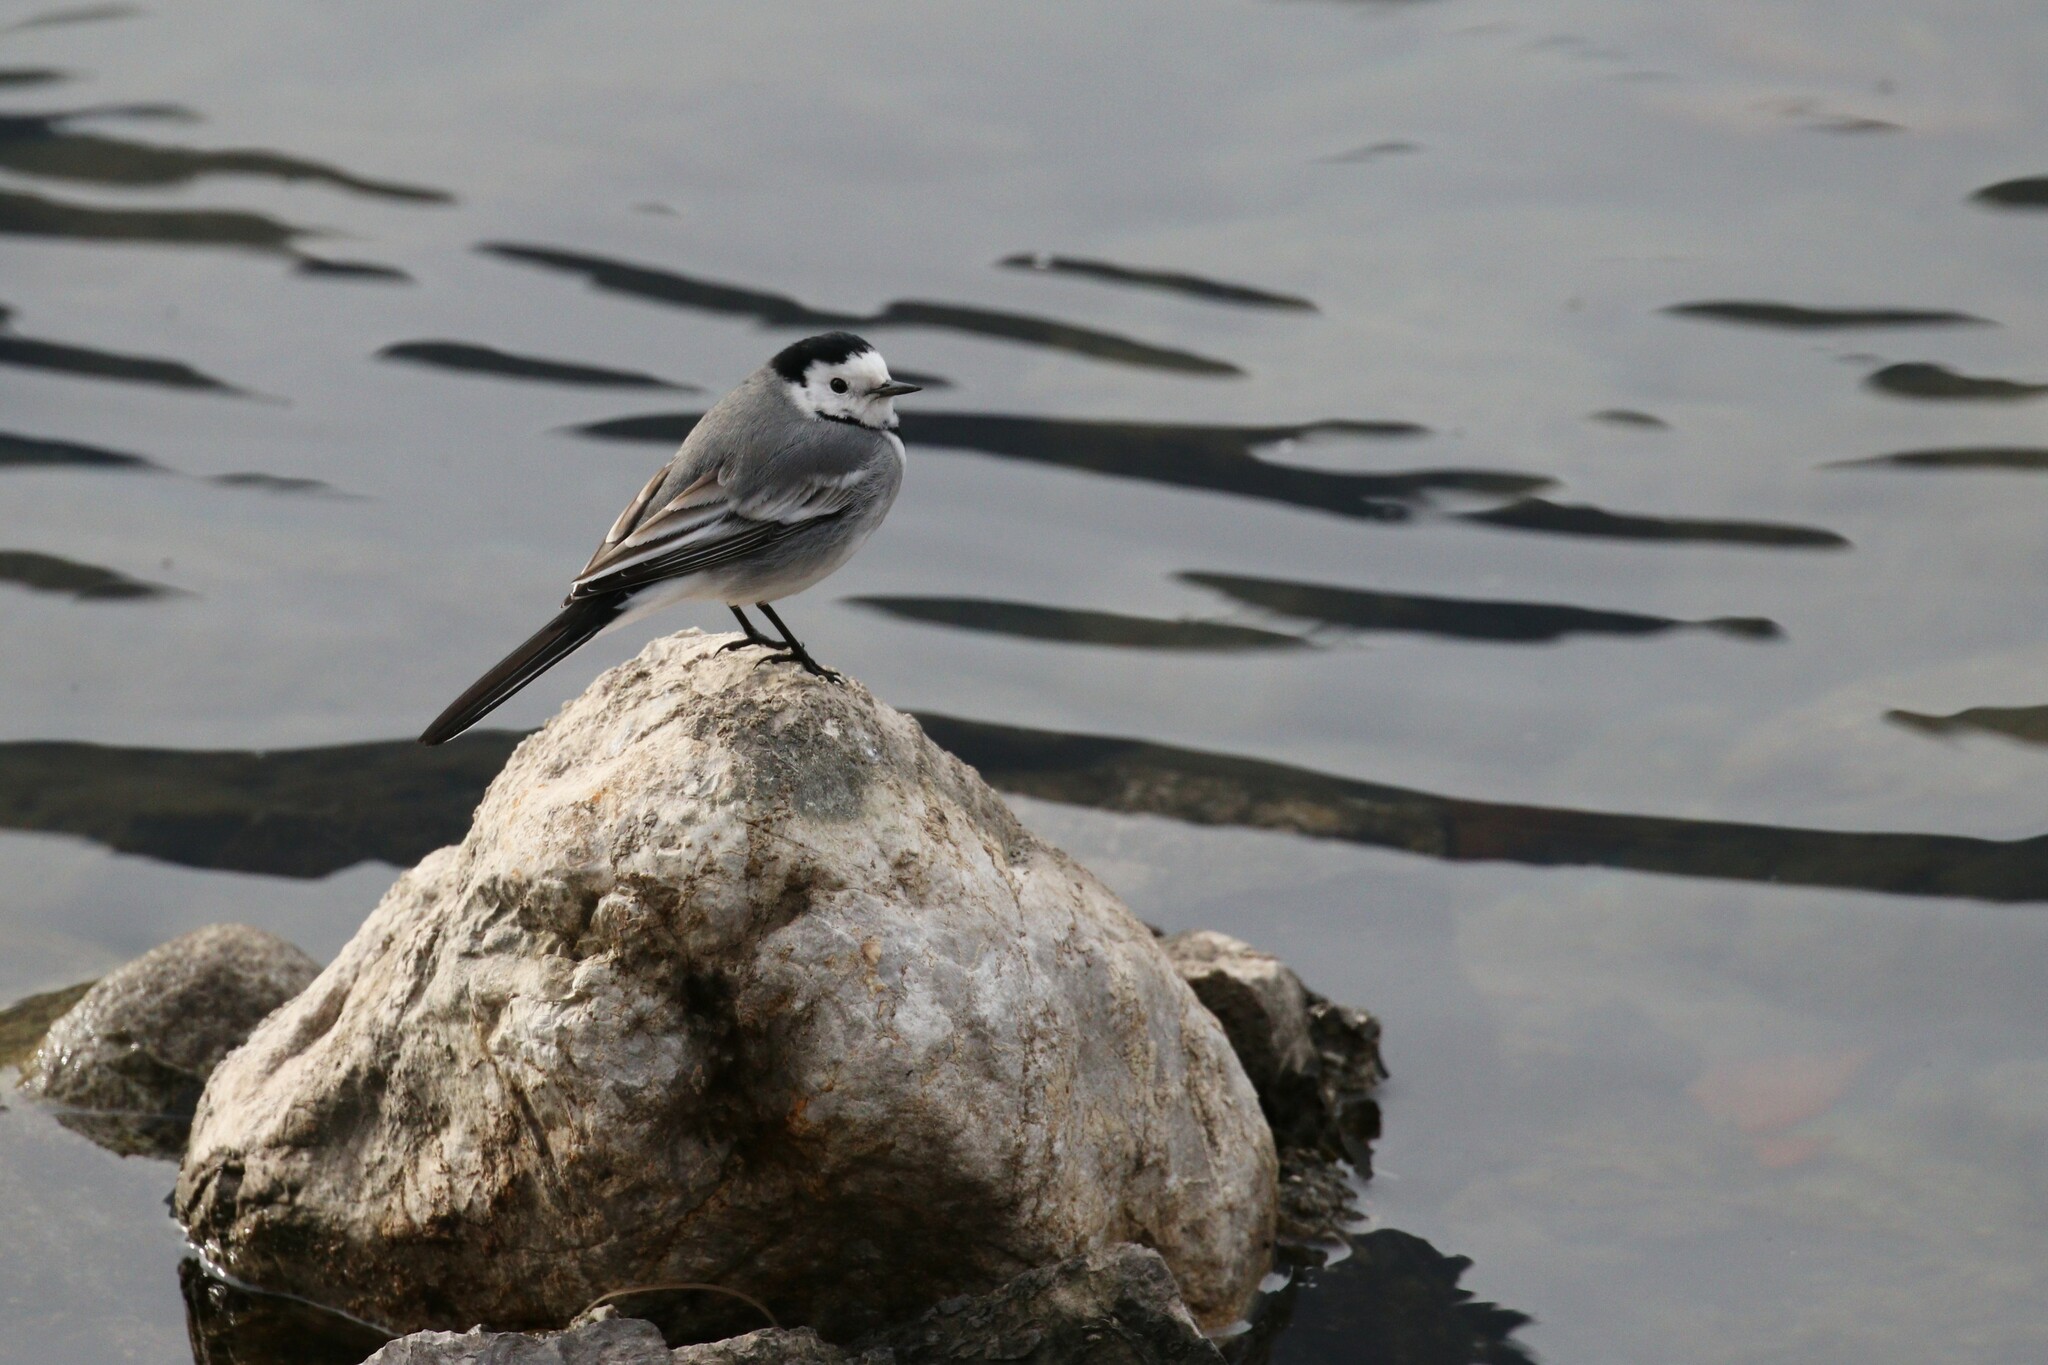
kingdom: Animalia
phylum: Chordata
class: Aves
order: Passeriformes
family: Motacillidae
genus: Motacilla
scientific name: Motacilla alba
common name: White wagtail
